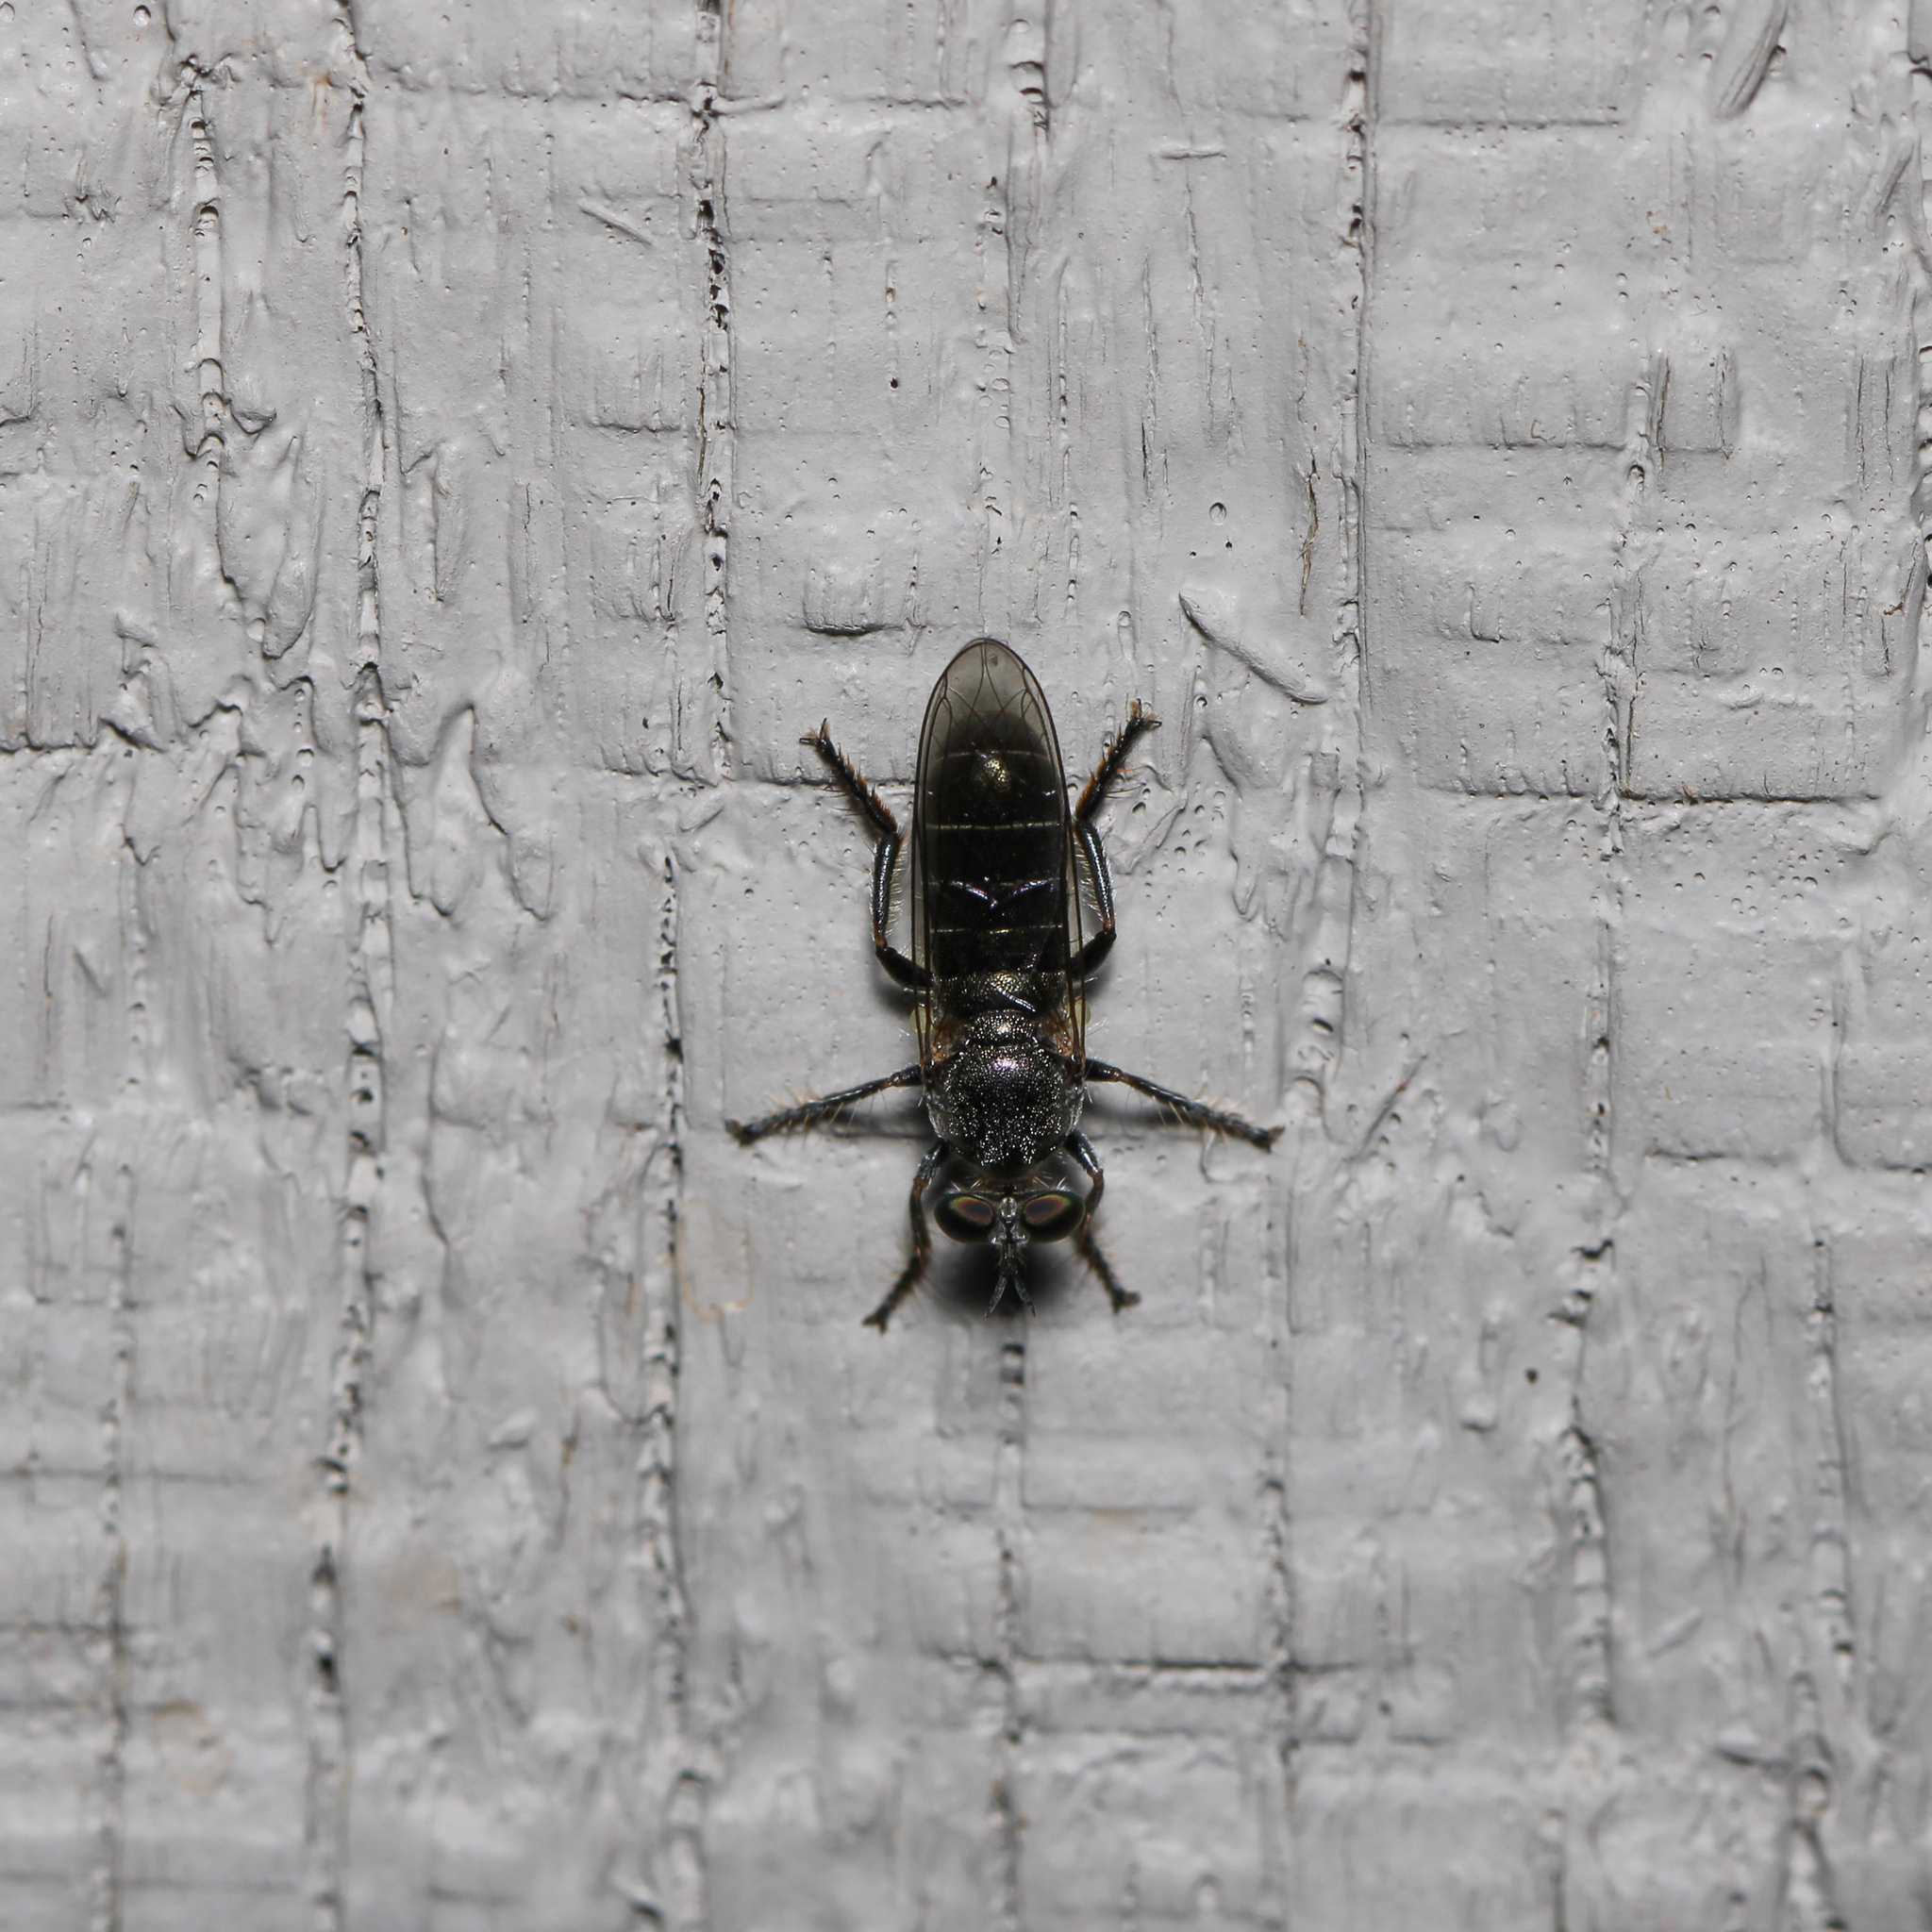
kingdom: Animalia
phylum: Arthropoda
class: Insecta
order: Diptera
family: Asilidae
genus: Atomosia
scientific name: Atomosia puella
